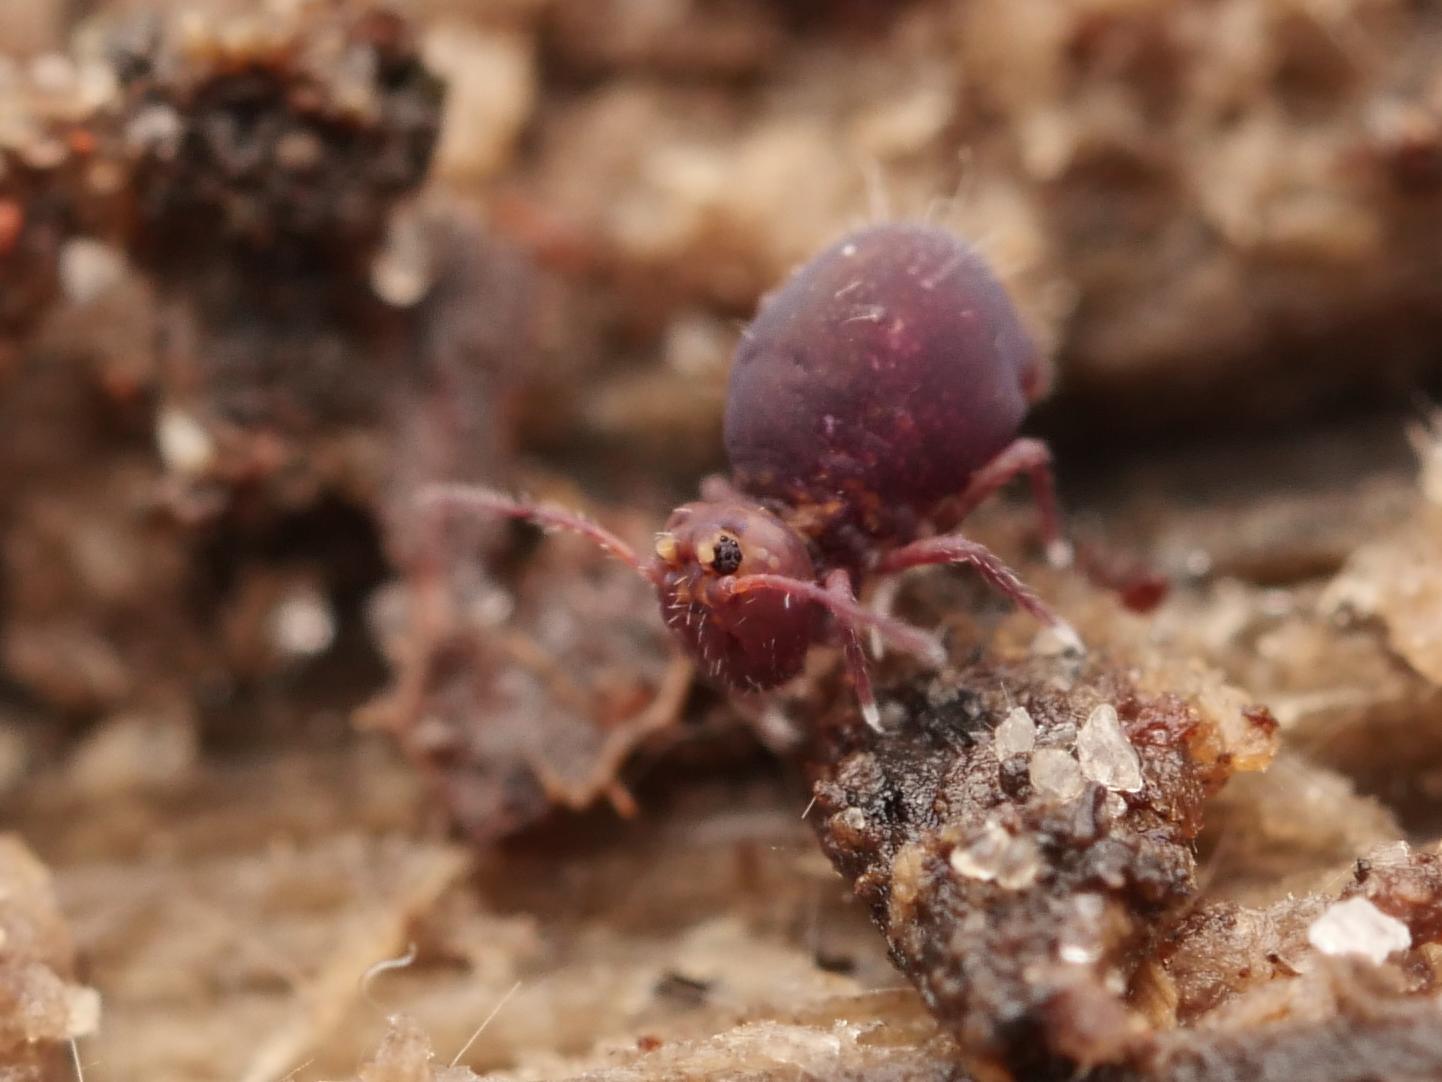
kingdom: Animalia
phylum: Arthropoda
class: Collembola
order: Symphypleona
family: Dicyrtomidae
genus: Dicyrtoma
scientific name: Dicyrtoma fusca
